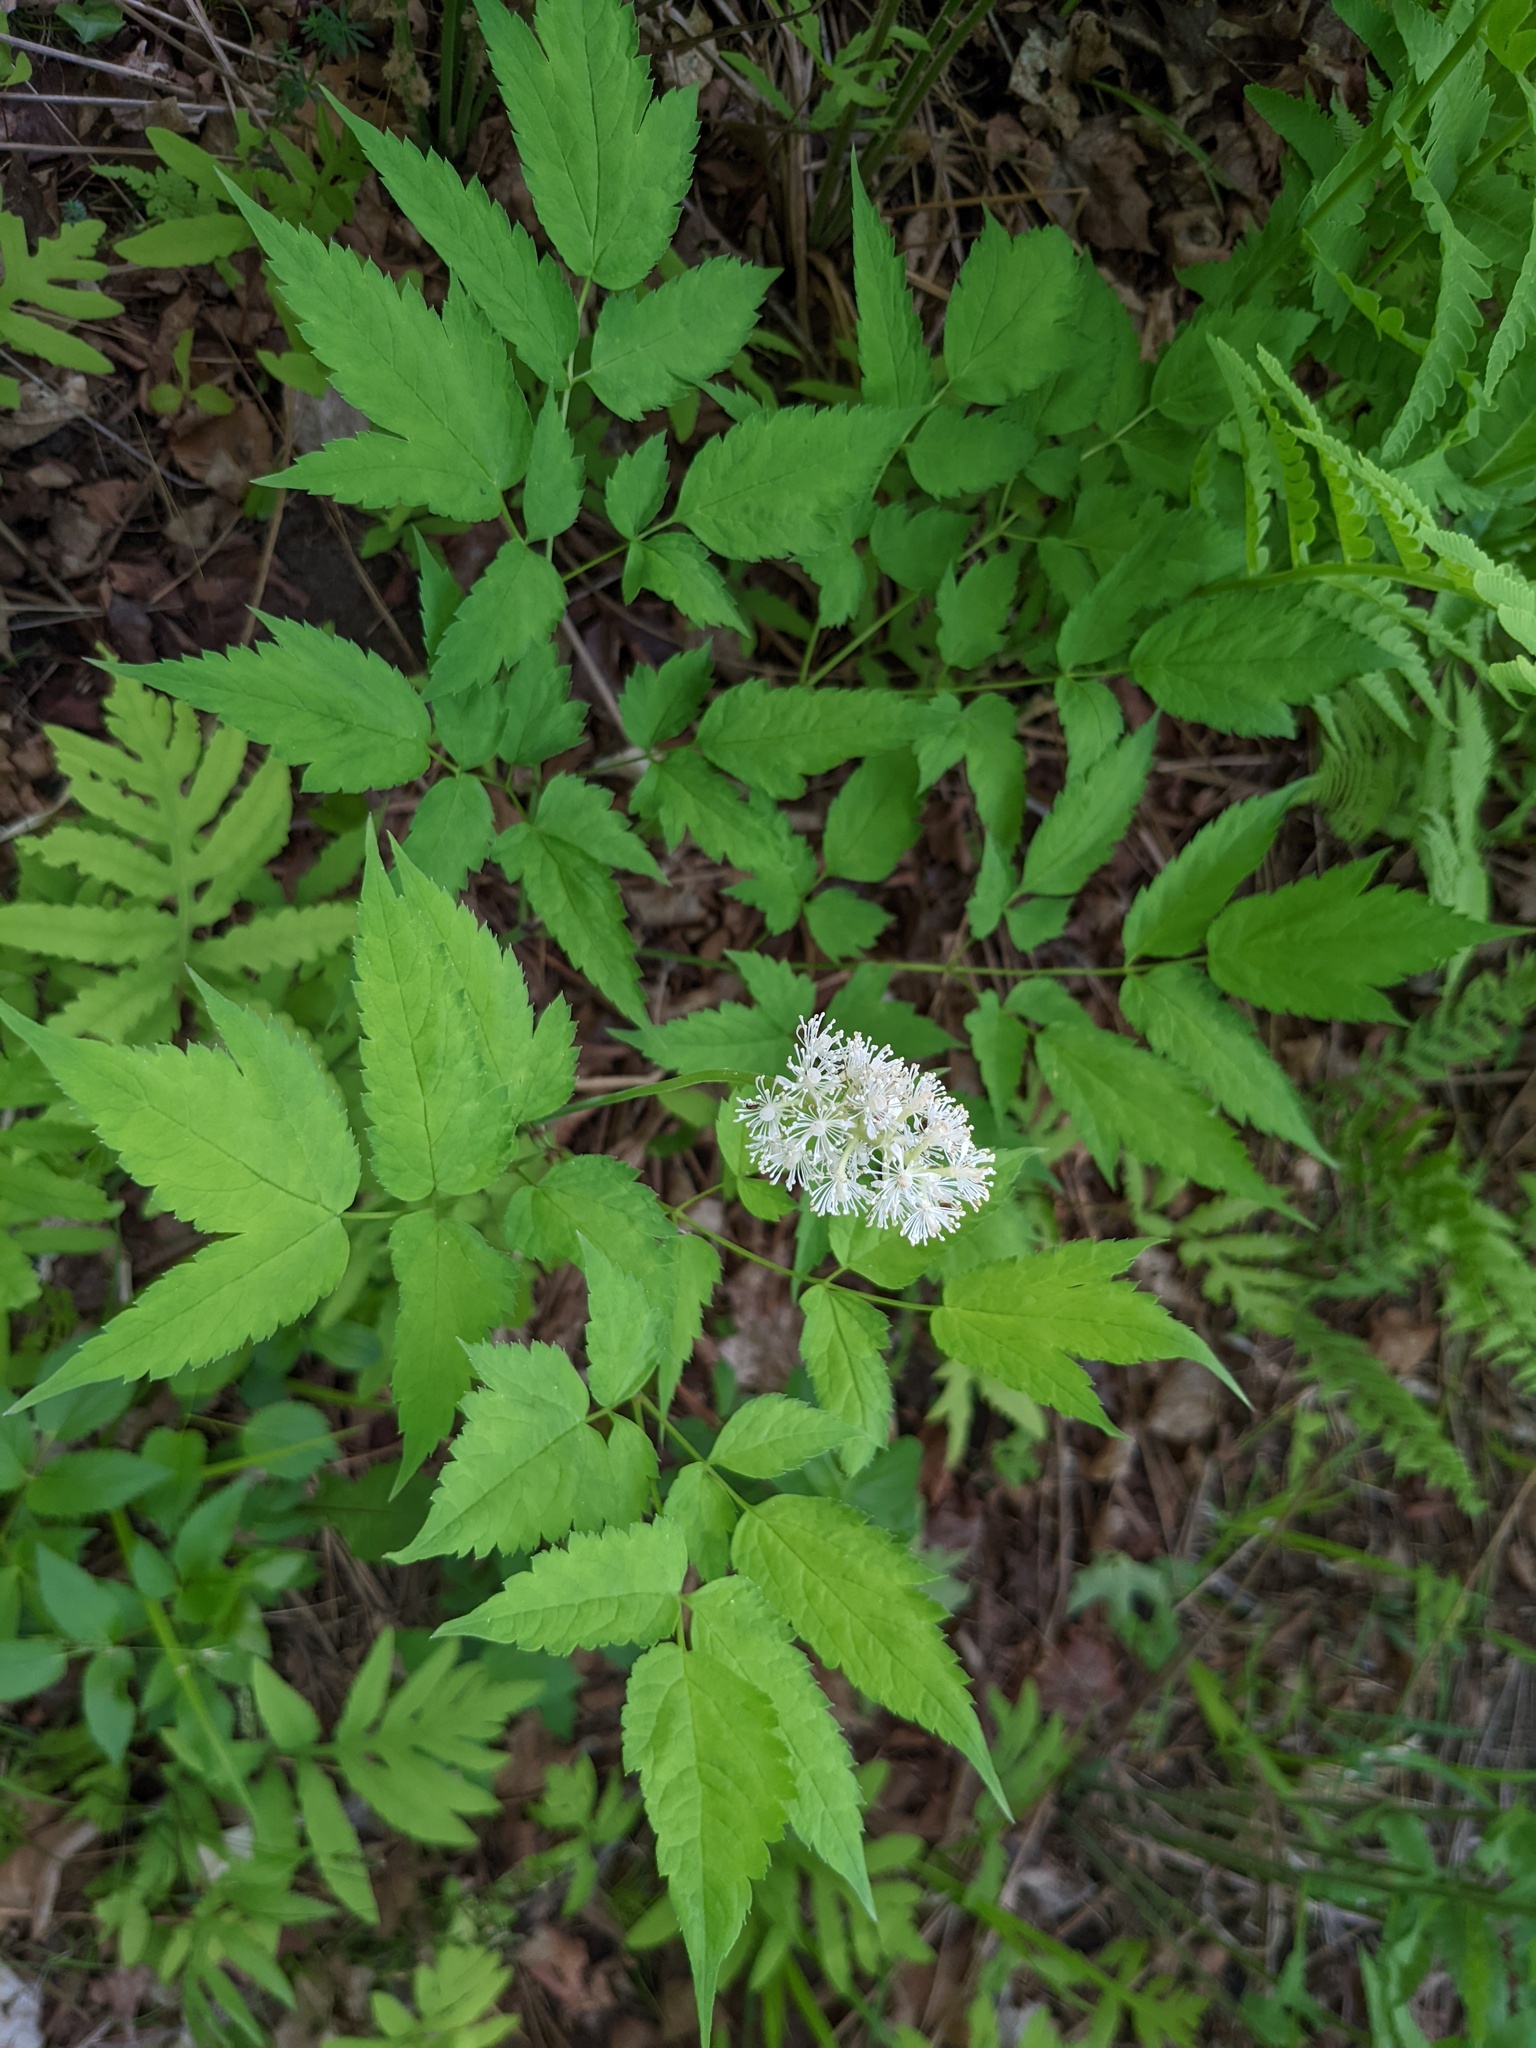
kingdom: Plantae
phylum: Tracheophyta
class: Magnoliopsida
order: Ranunculales
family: Ranunculaceae
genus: Actaea
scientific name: Actaea pachypoda
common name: Doll's-eyes
